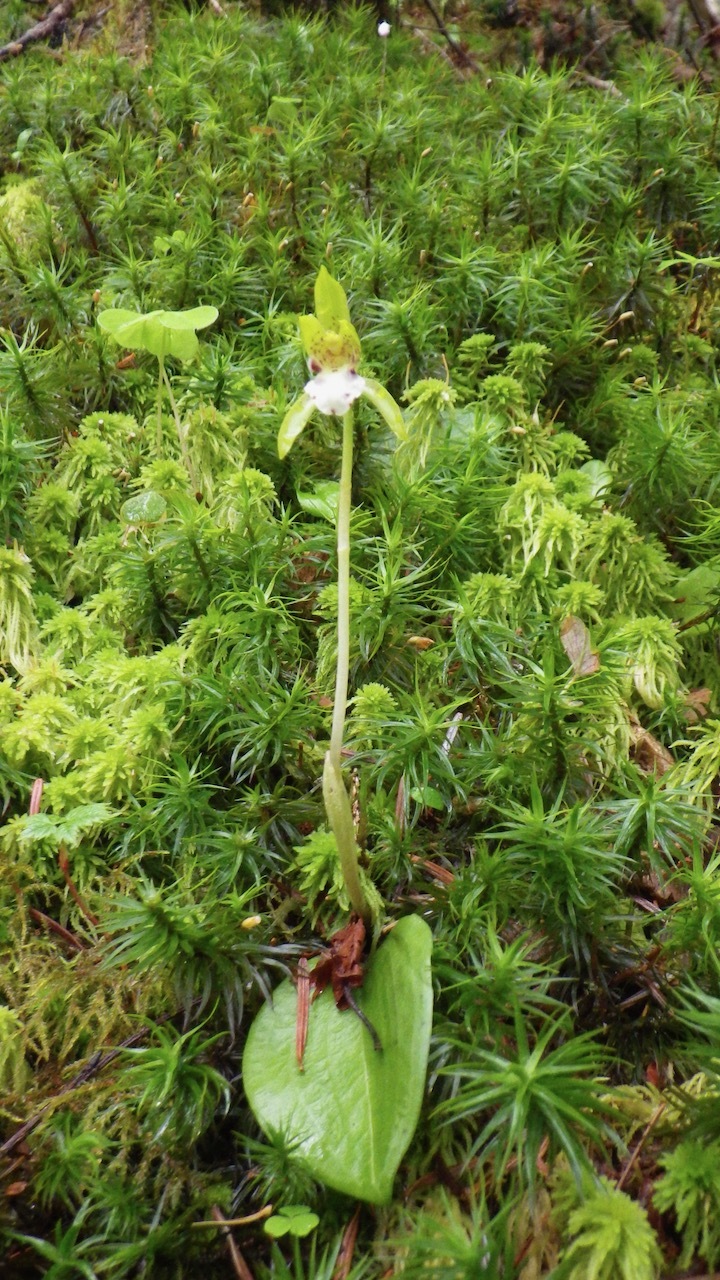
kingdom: Plantae
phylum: Tracheophyta
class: Liliopsida
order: Asparagales
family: Orchidaceae
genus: Dactylostalix
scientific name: Dactylostalix ringens
